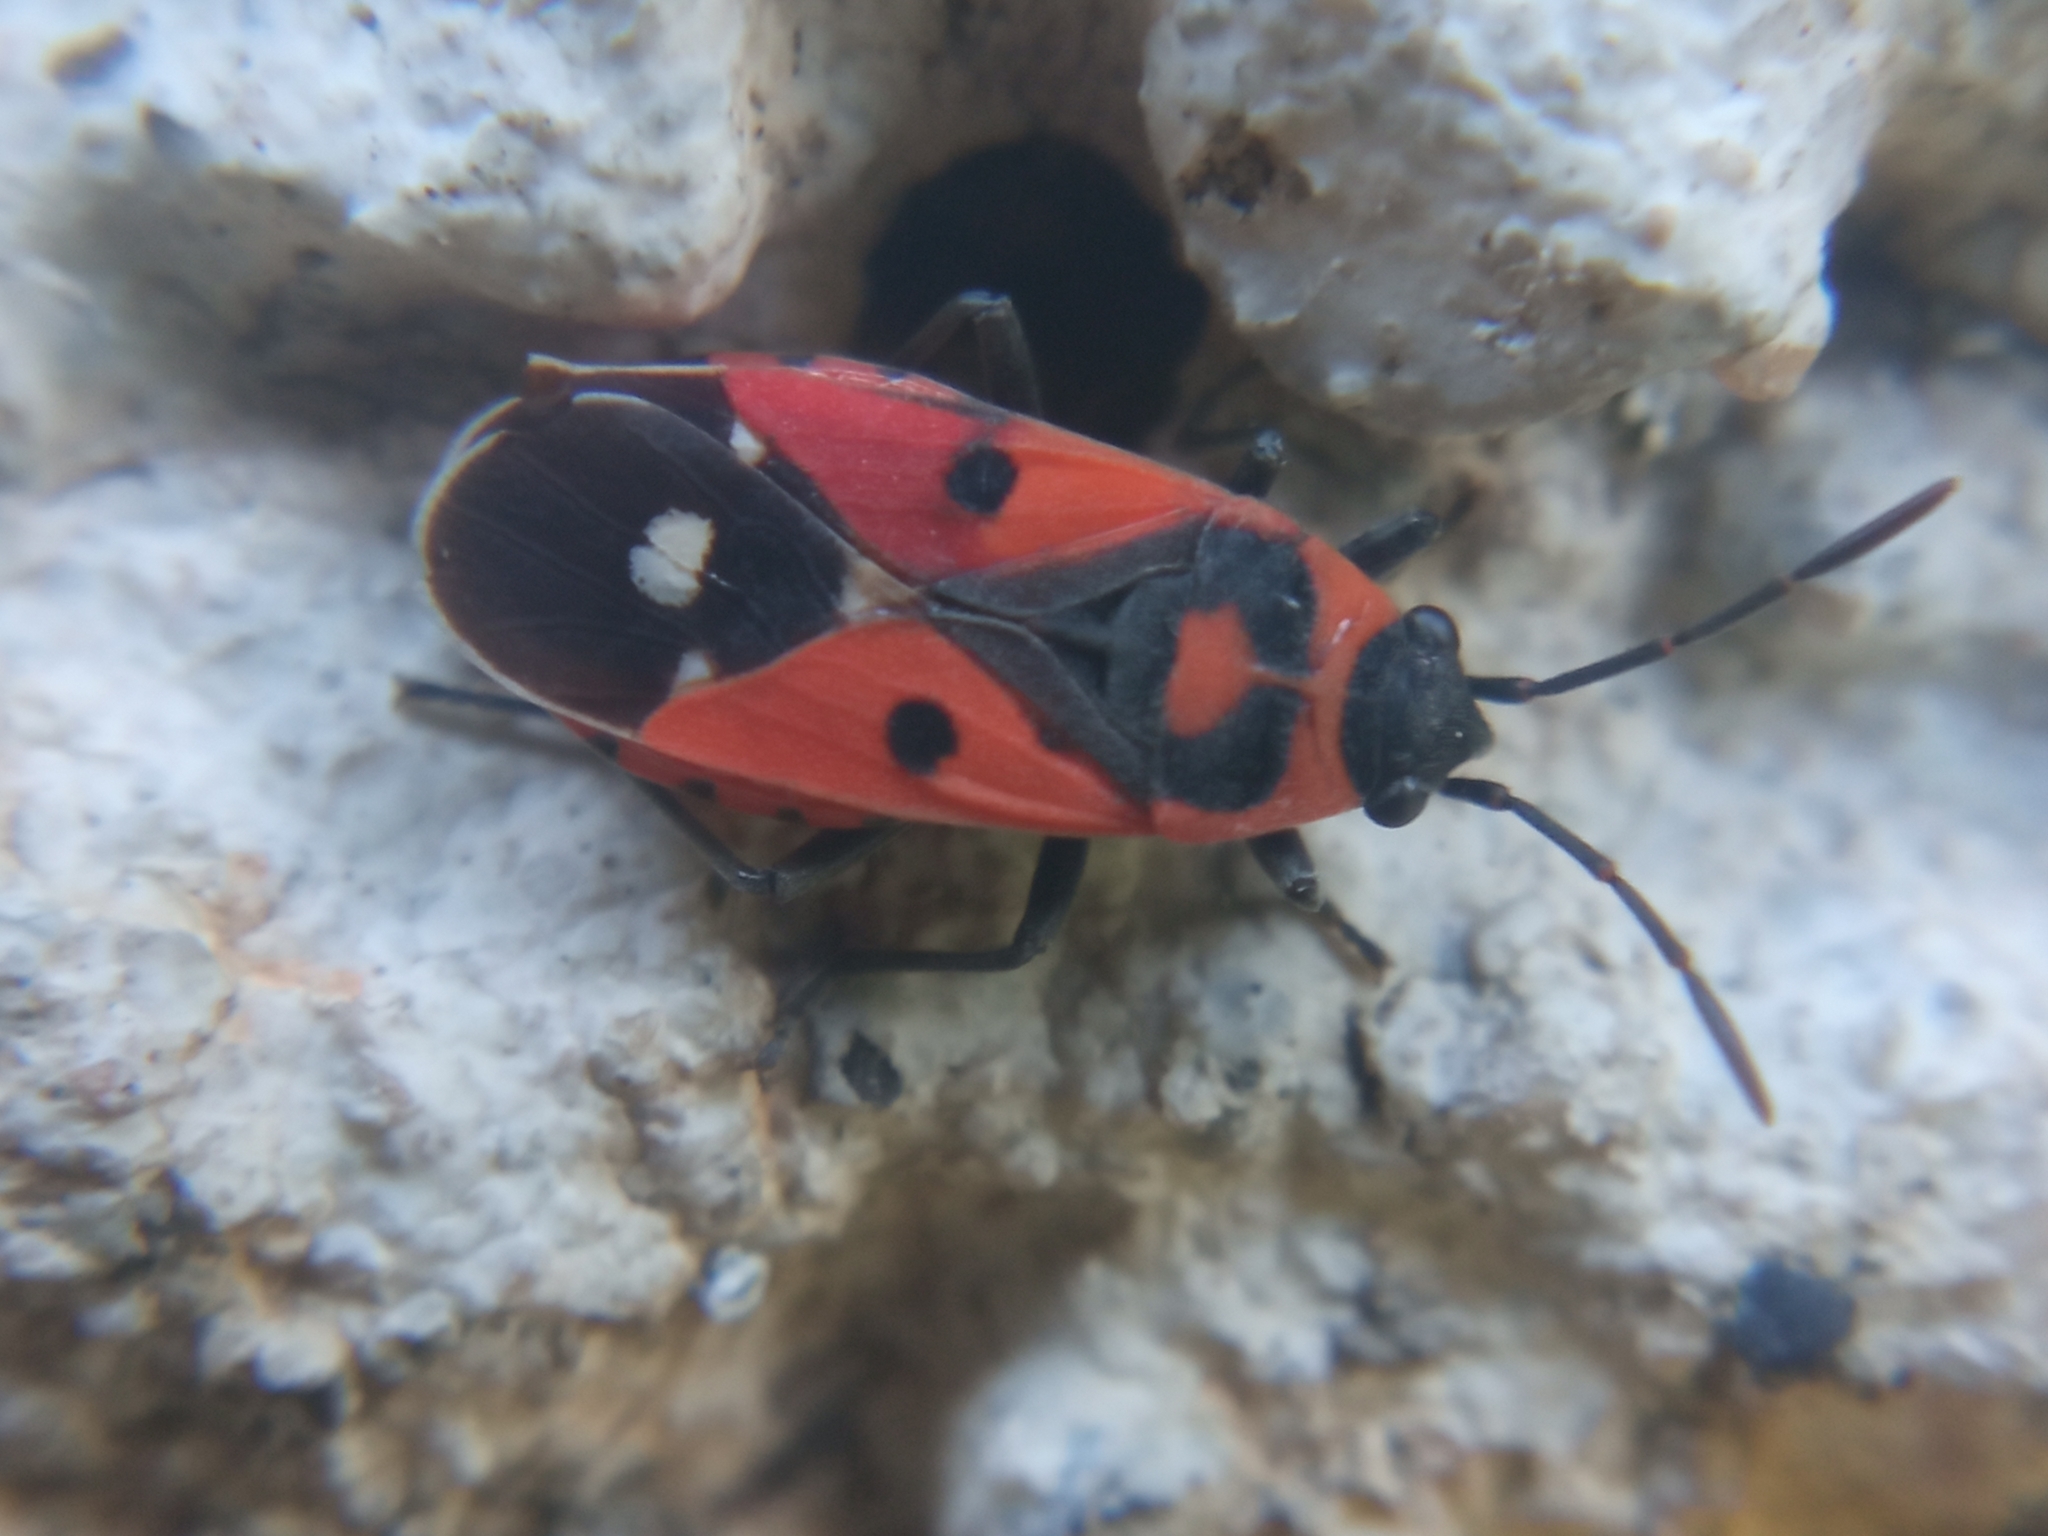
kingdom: Animalia
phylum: Arthropoda
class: Insecta
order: Hemiptera
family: Lygaeidae
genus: Melanocoryphus
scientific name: Melanocoryphus albomaculatus
